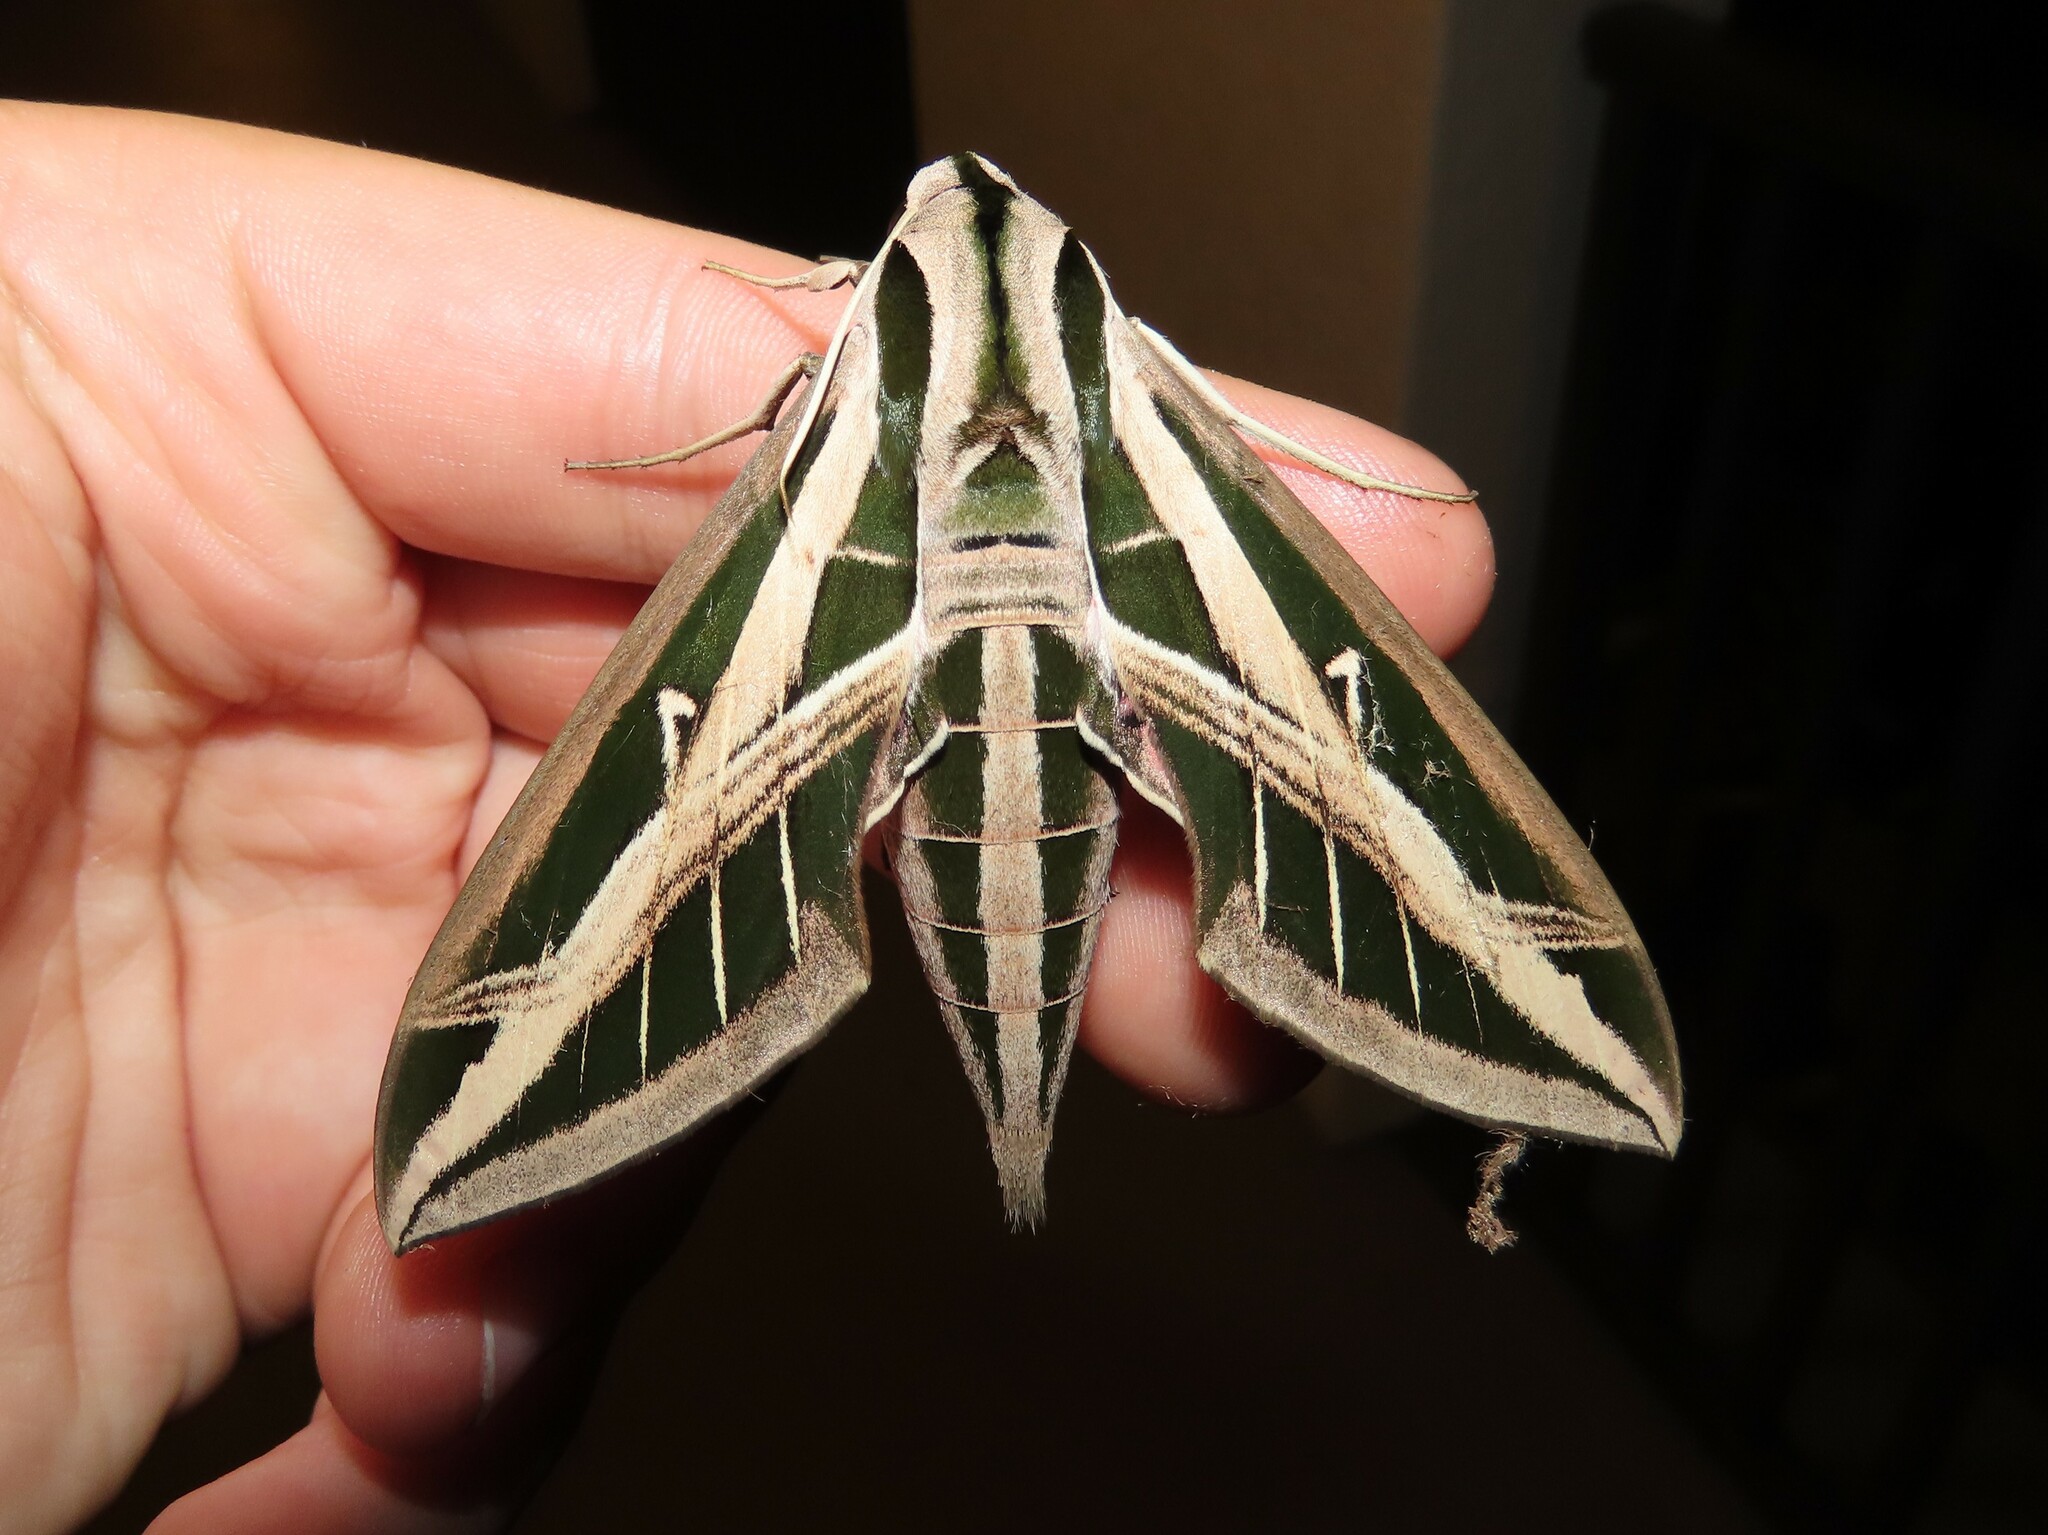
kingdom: Animalia
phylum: Arthropoda
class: Insecta
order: Lepidoptera
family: Sphingidae
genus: Eumorpha
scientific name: Eumorpha fasciatus
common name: Banded sphinx
